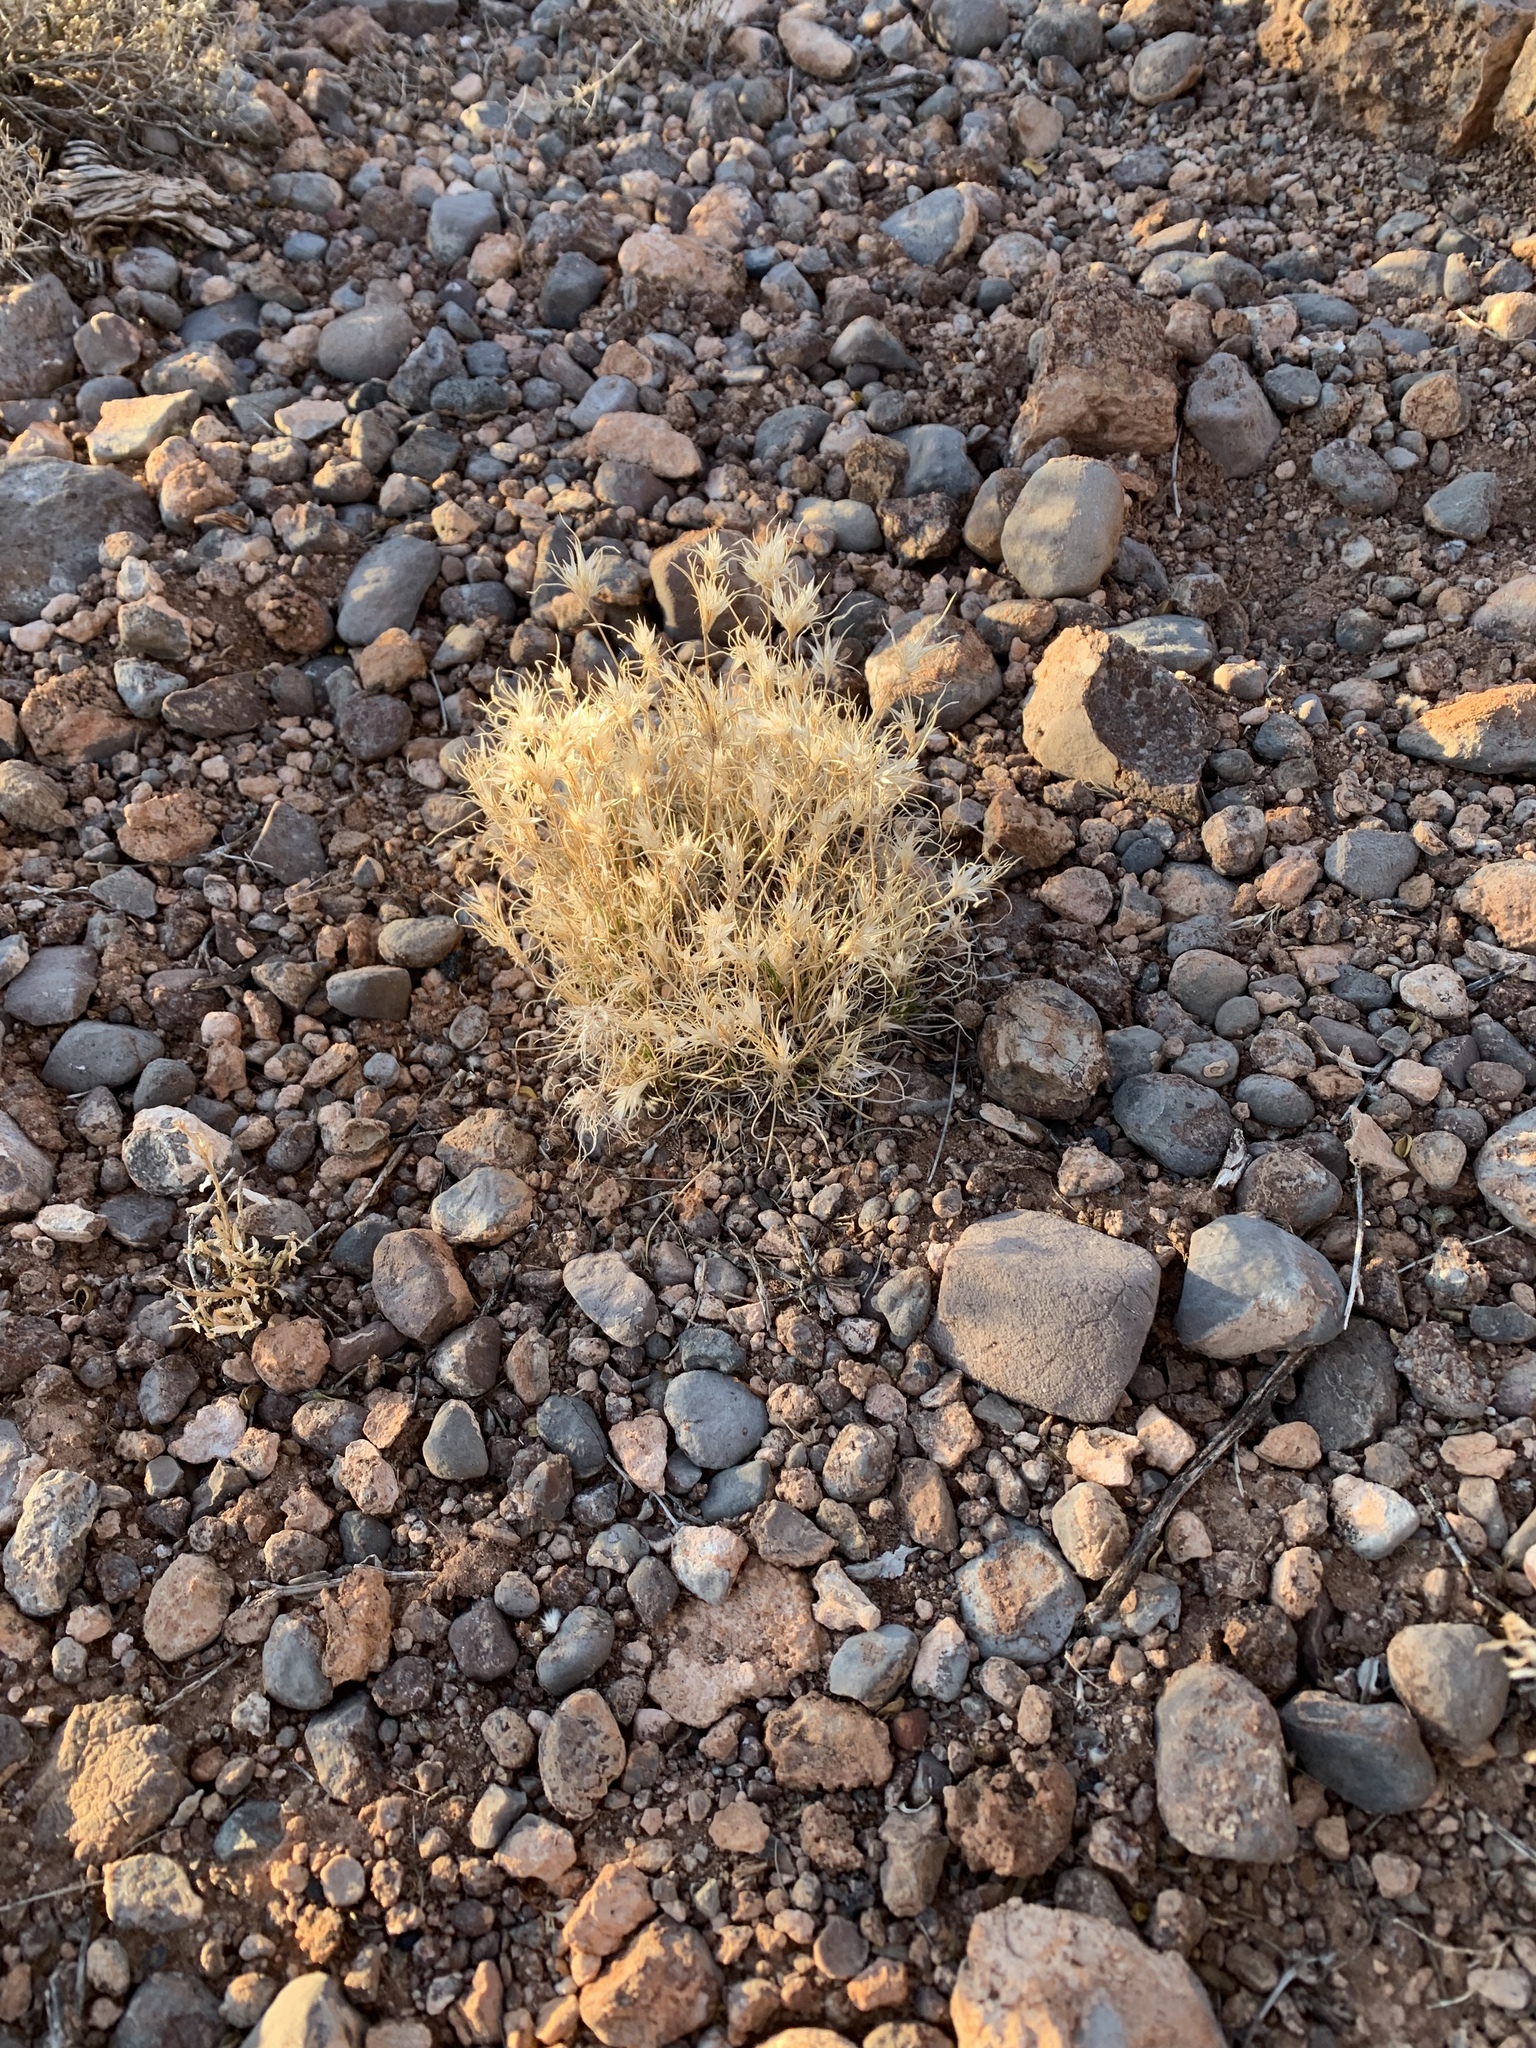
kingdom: Plantae
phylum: Tracheophyta
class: Liliopsida
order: Poales
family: Poaceae
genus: Dasyochloa
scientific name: Dasyochloa pulchella
